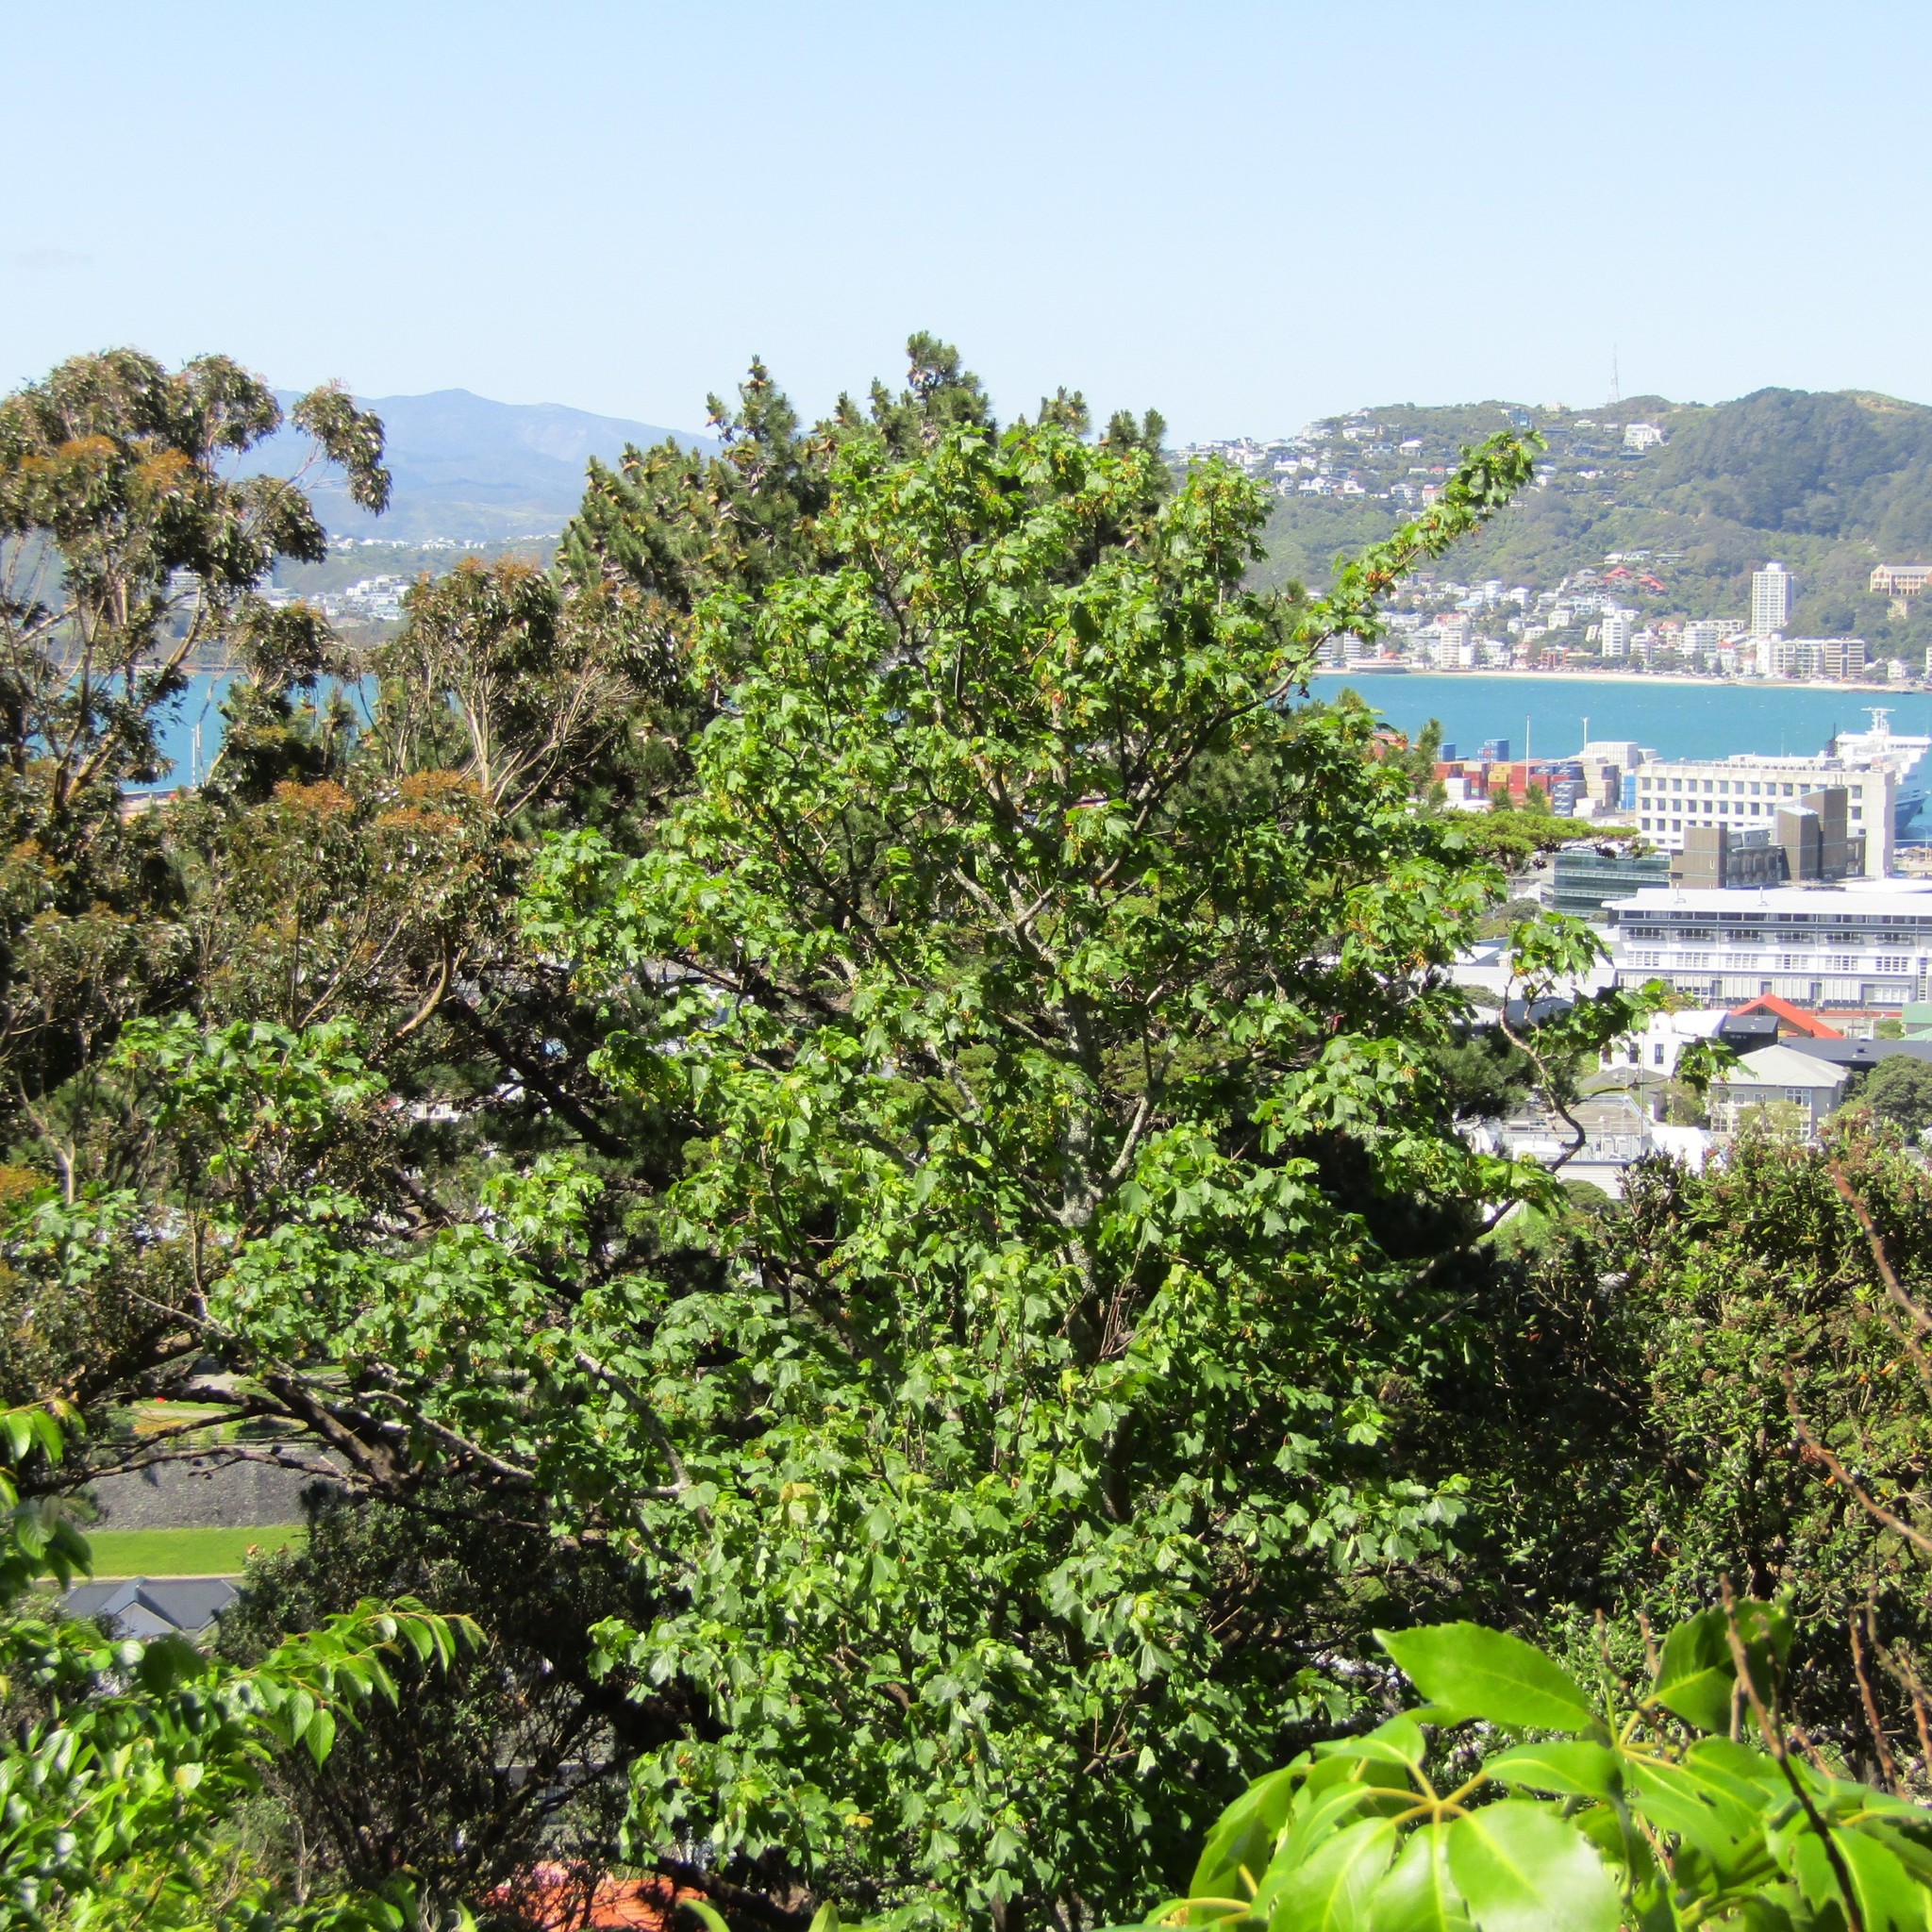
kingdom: Plantae
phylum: Tracheophyta
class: Magnoliopsida
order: Sapindales
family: Sapindaceae
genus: Acer
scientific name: Acer pseudoplatanus
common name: Sycamore
